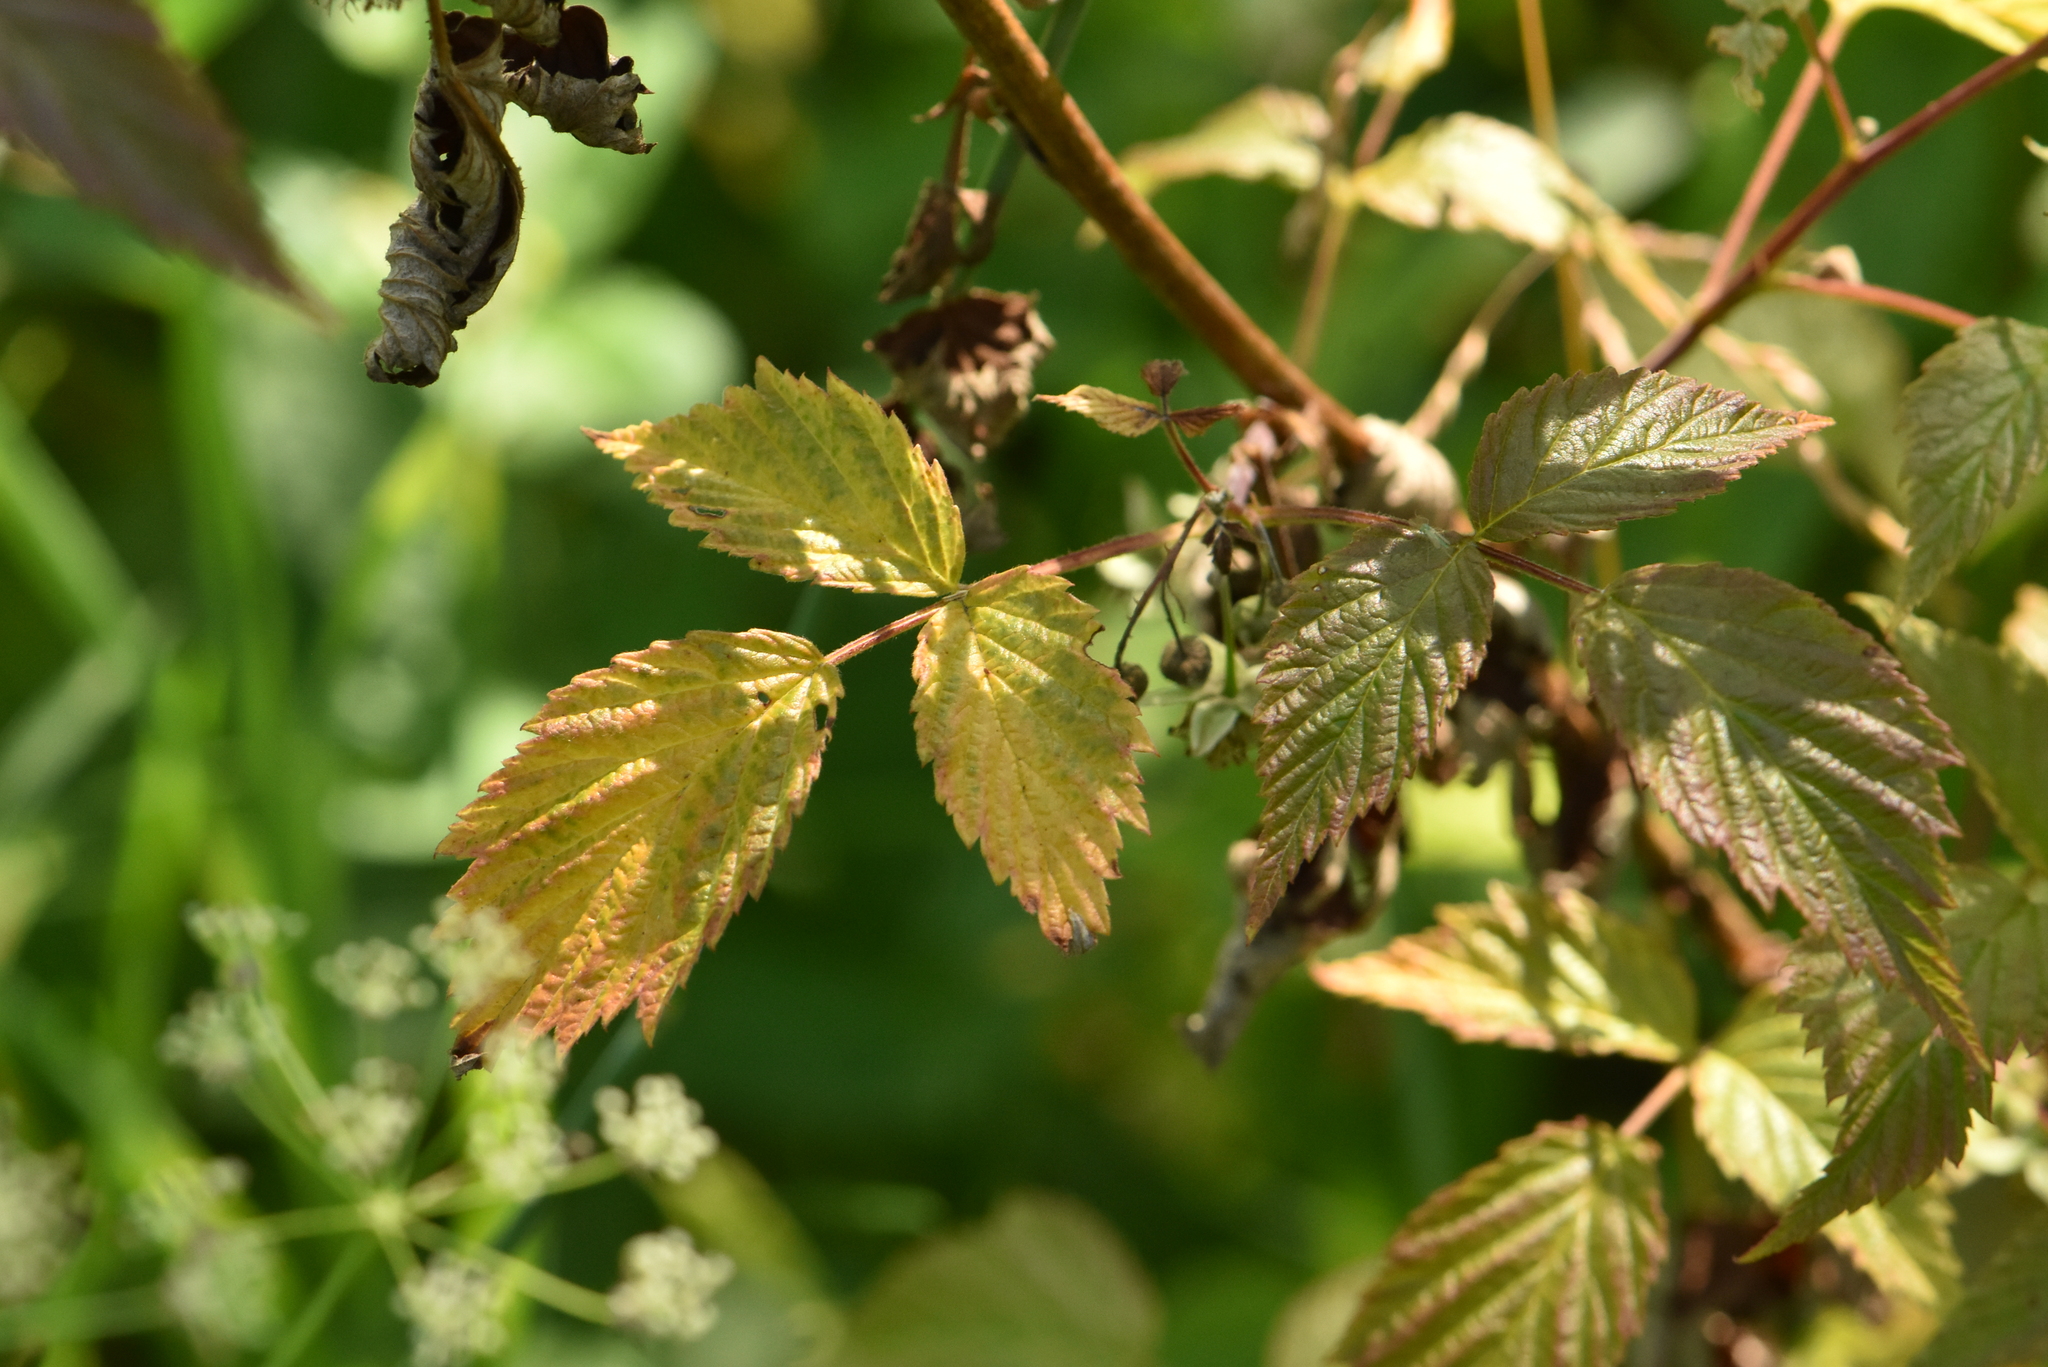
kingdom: Plantae
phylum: Tracheophyta
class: Magnoliopsida
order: Rosales
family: Rosaceae
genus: Rubus
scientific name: Rubus idaeus
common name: Raspberry
